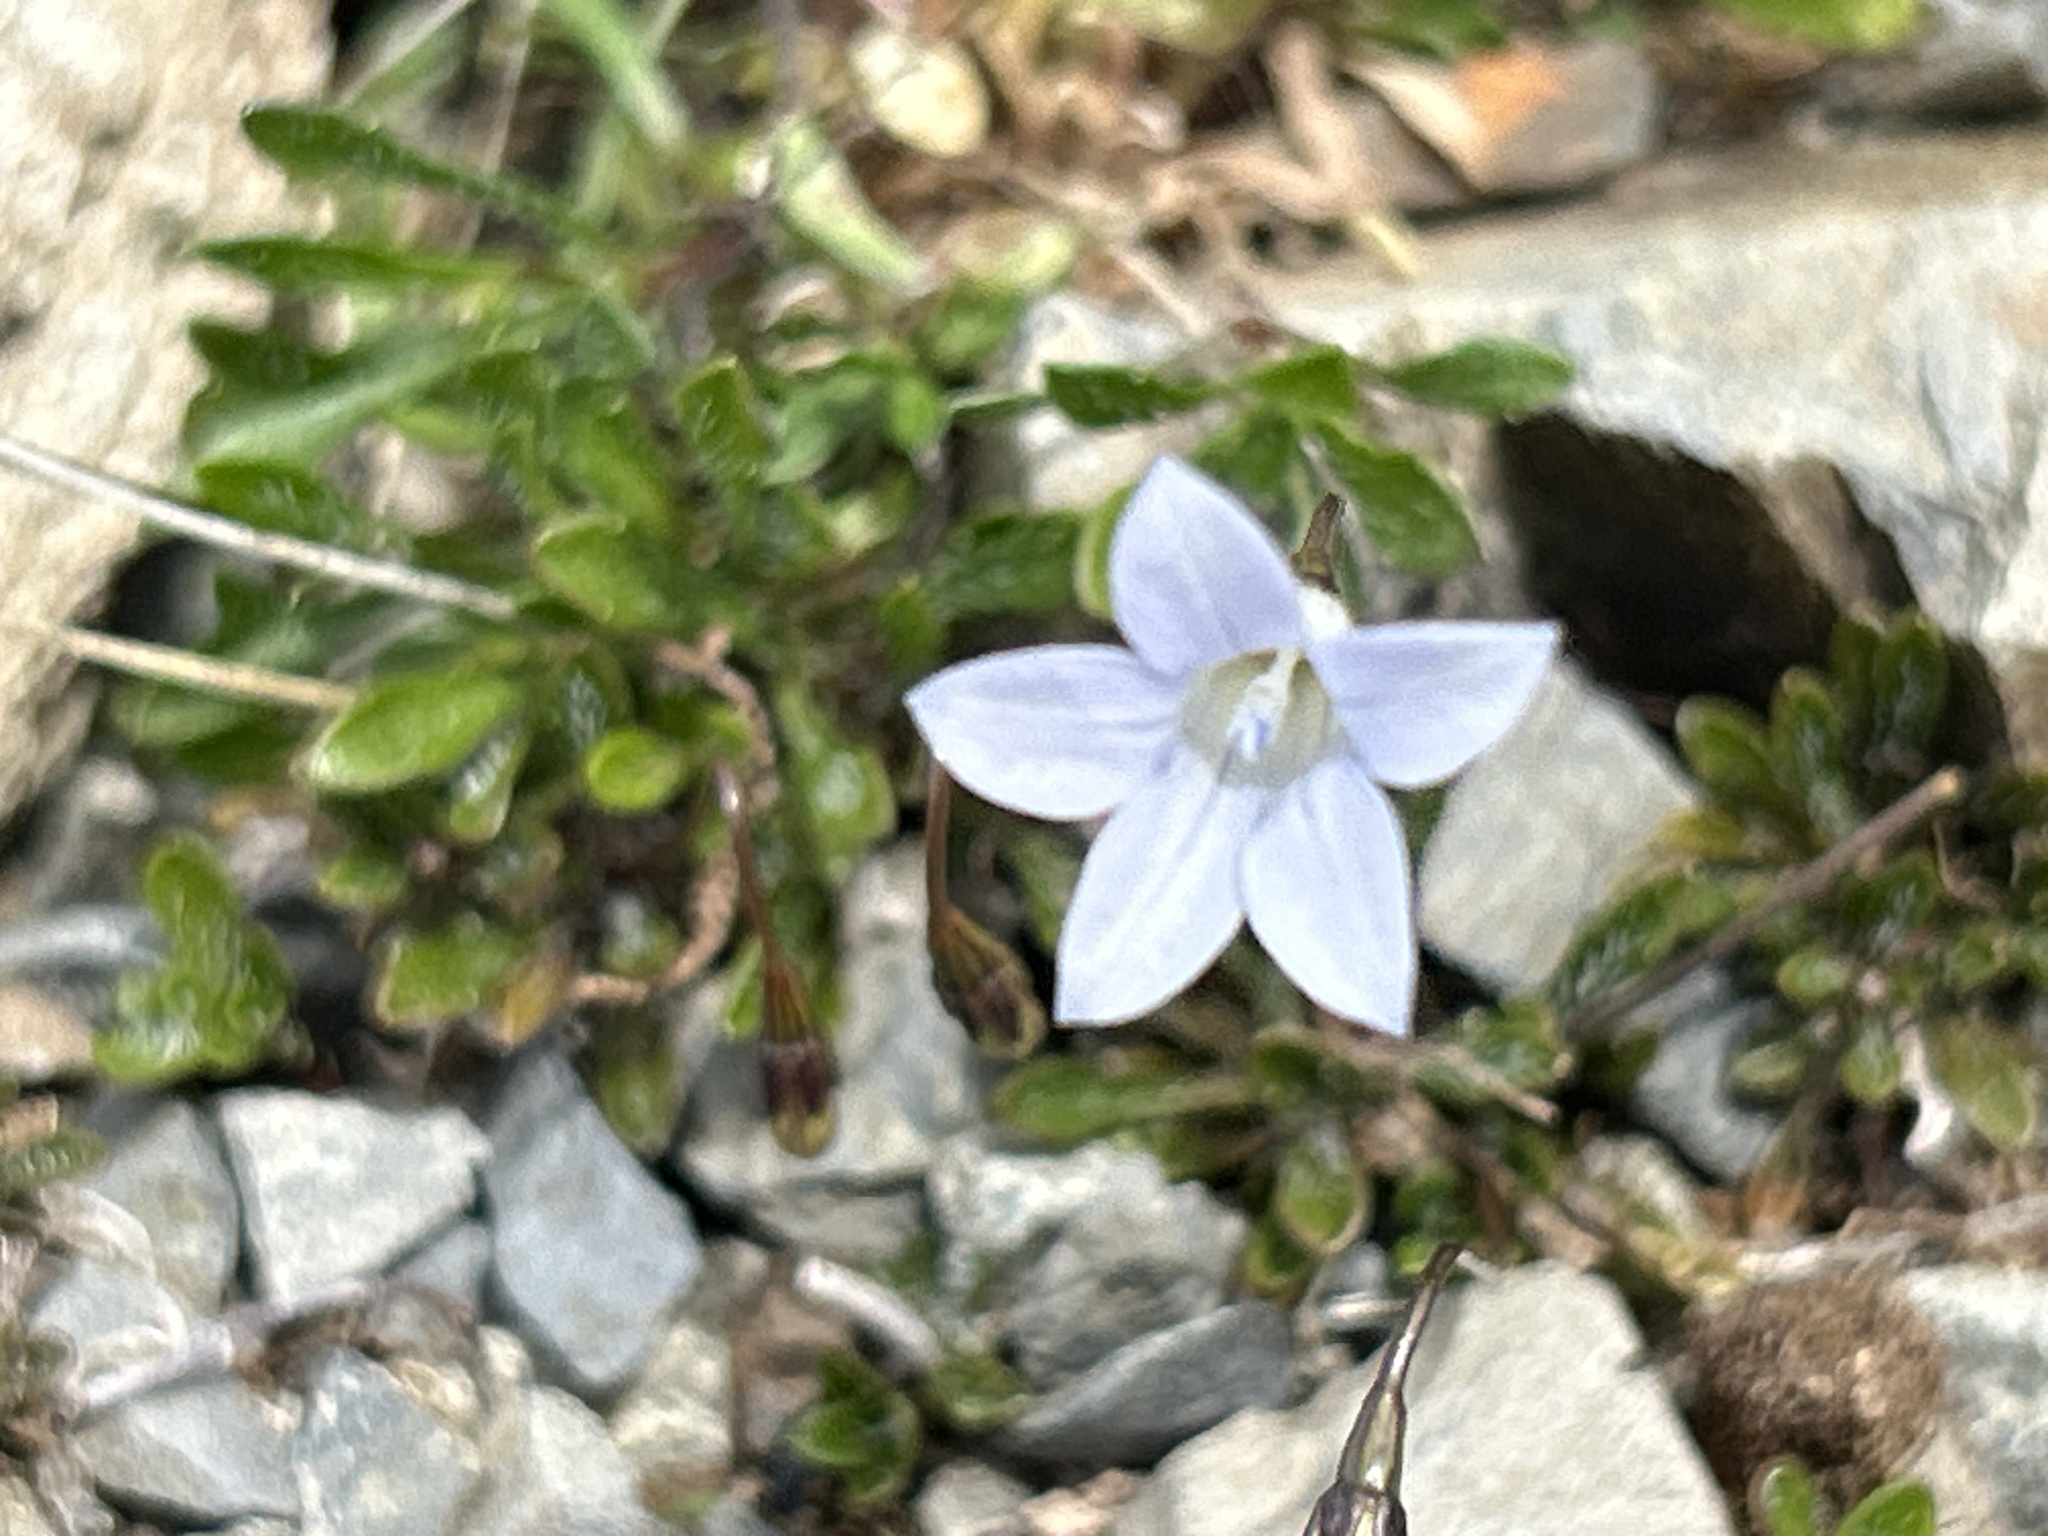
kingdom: Plantae
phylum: Tracheophyta
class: Magnoliopsida
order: Asterales
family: Campanulaceae
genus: Wahlenbergia
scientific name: Wahlenbergia albomarginata
